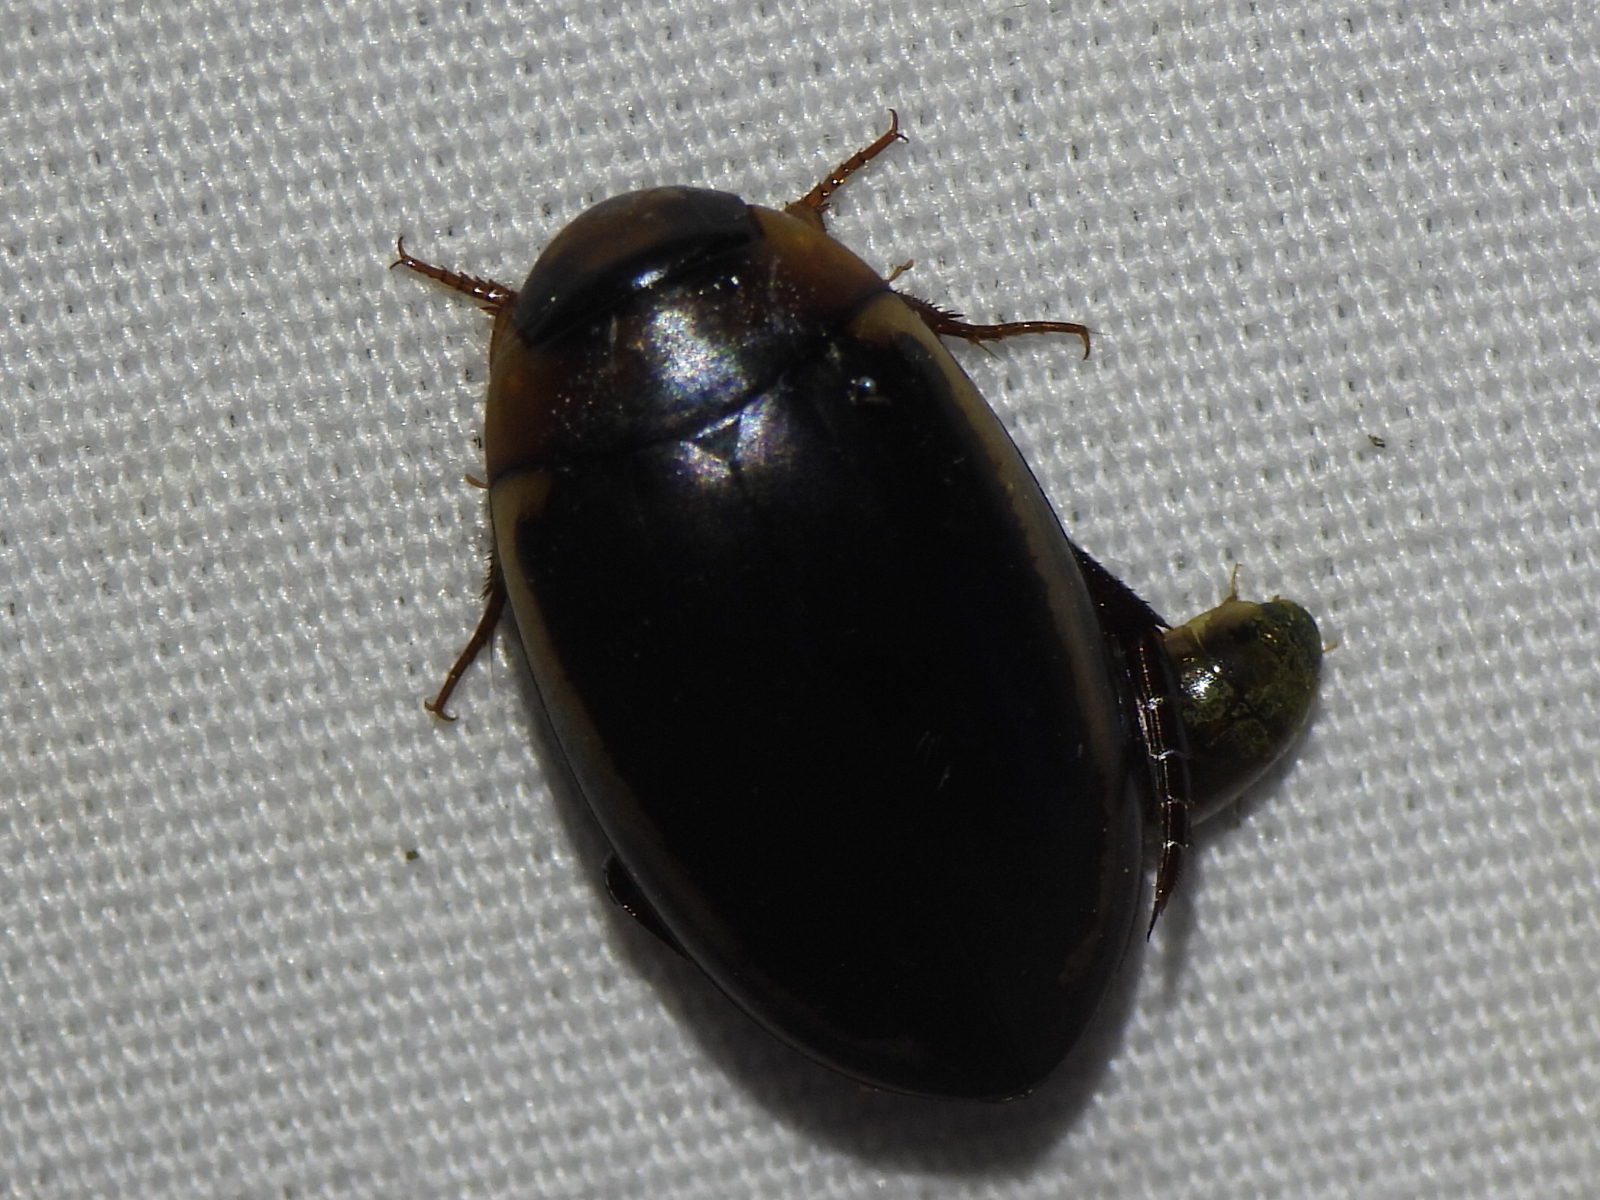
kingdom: Animalia
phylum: Arthropoda
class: Insecta
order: Coleoptera
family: Dytiscidae
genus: Hydaticus
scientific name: Hydaticus bimarginatus
